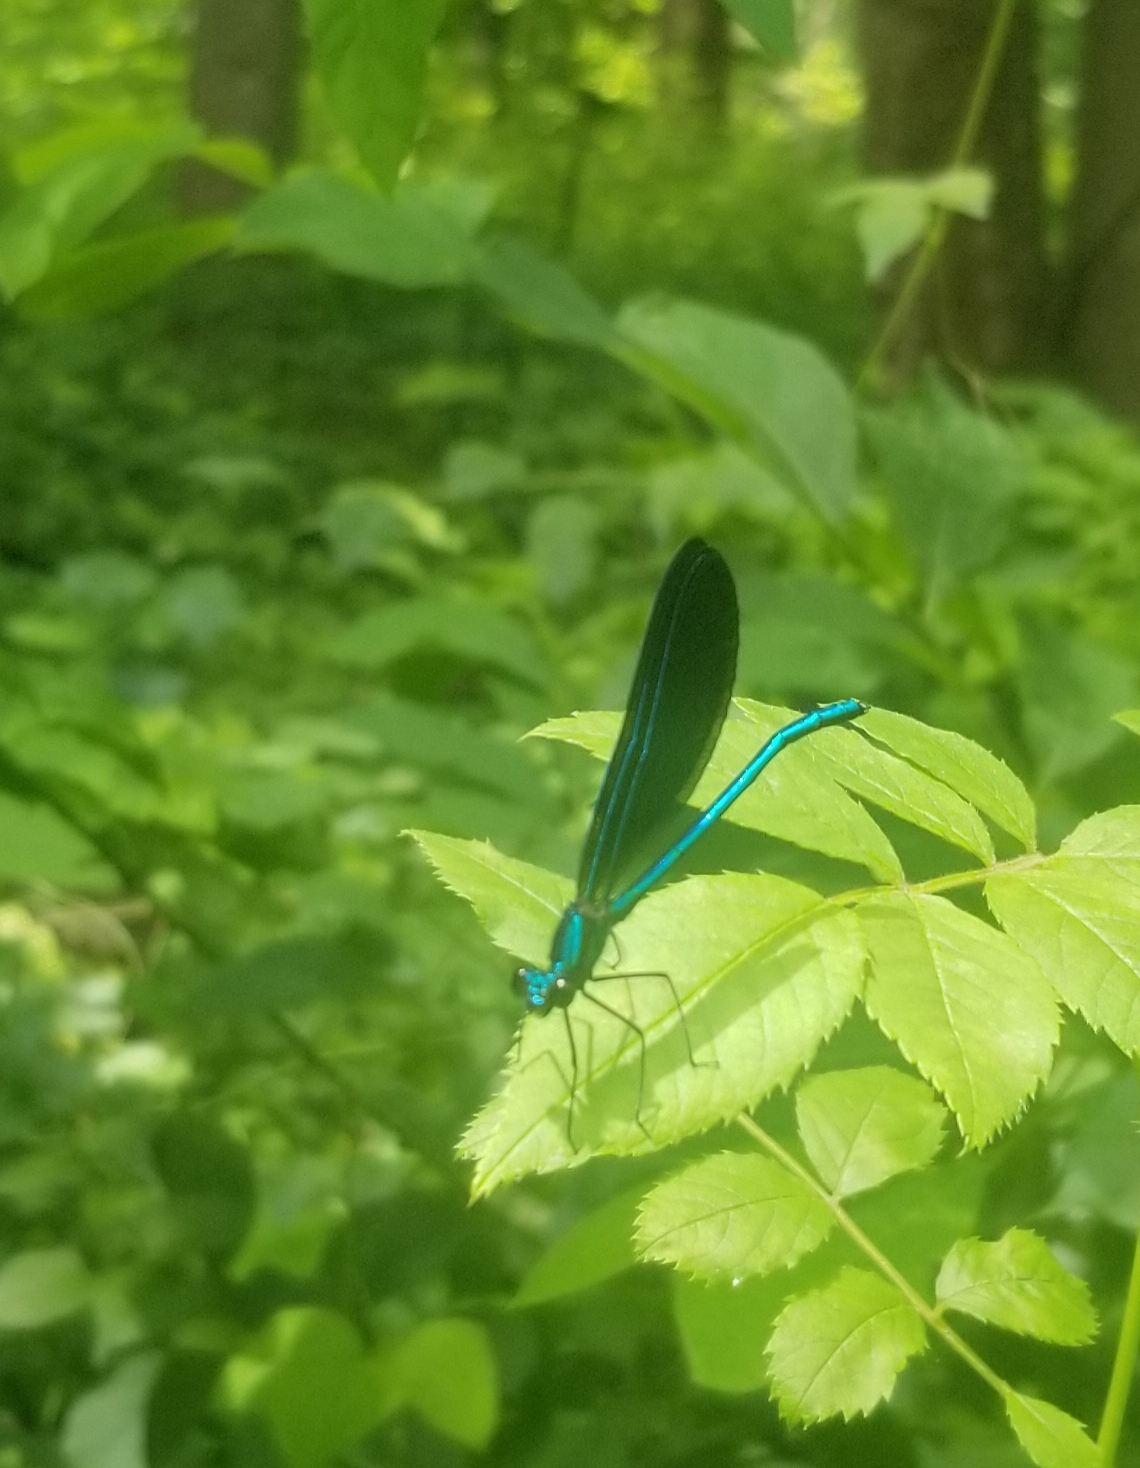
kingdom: Animalia
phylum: Arthropoda
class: Insecta
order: Odonata
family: Calopterygidae
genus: Calopteryx
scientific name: Calopteryx maculata
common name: Ebony jewelwing
